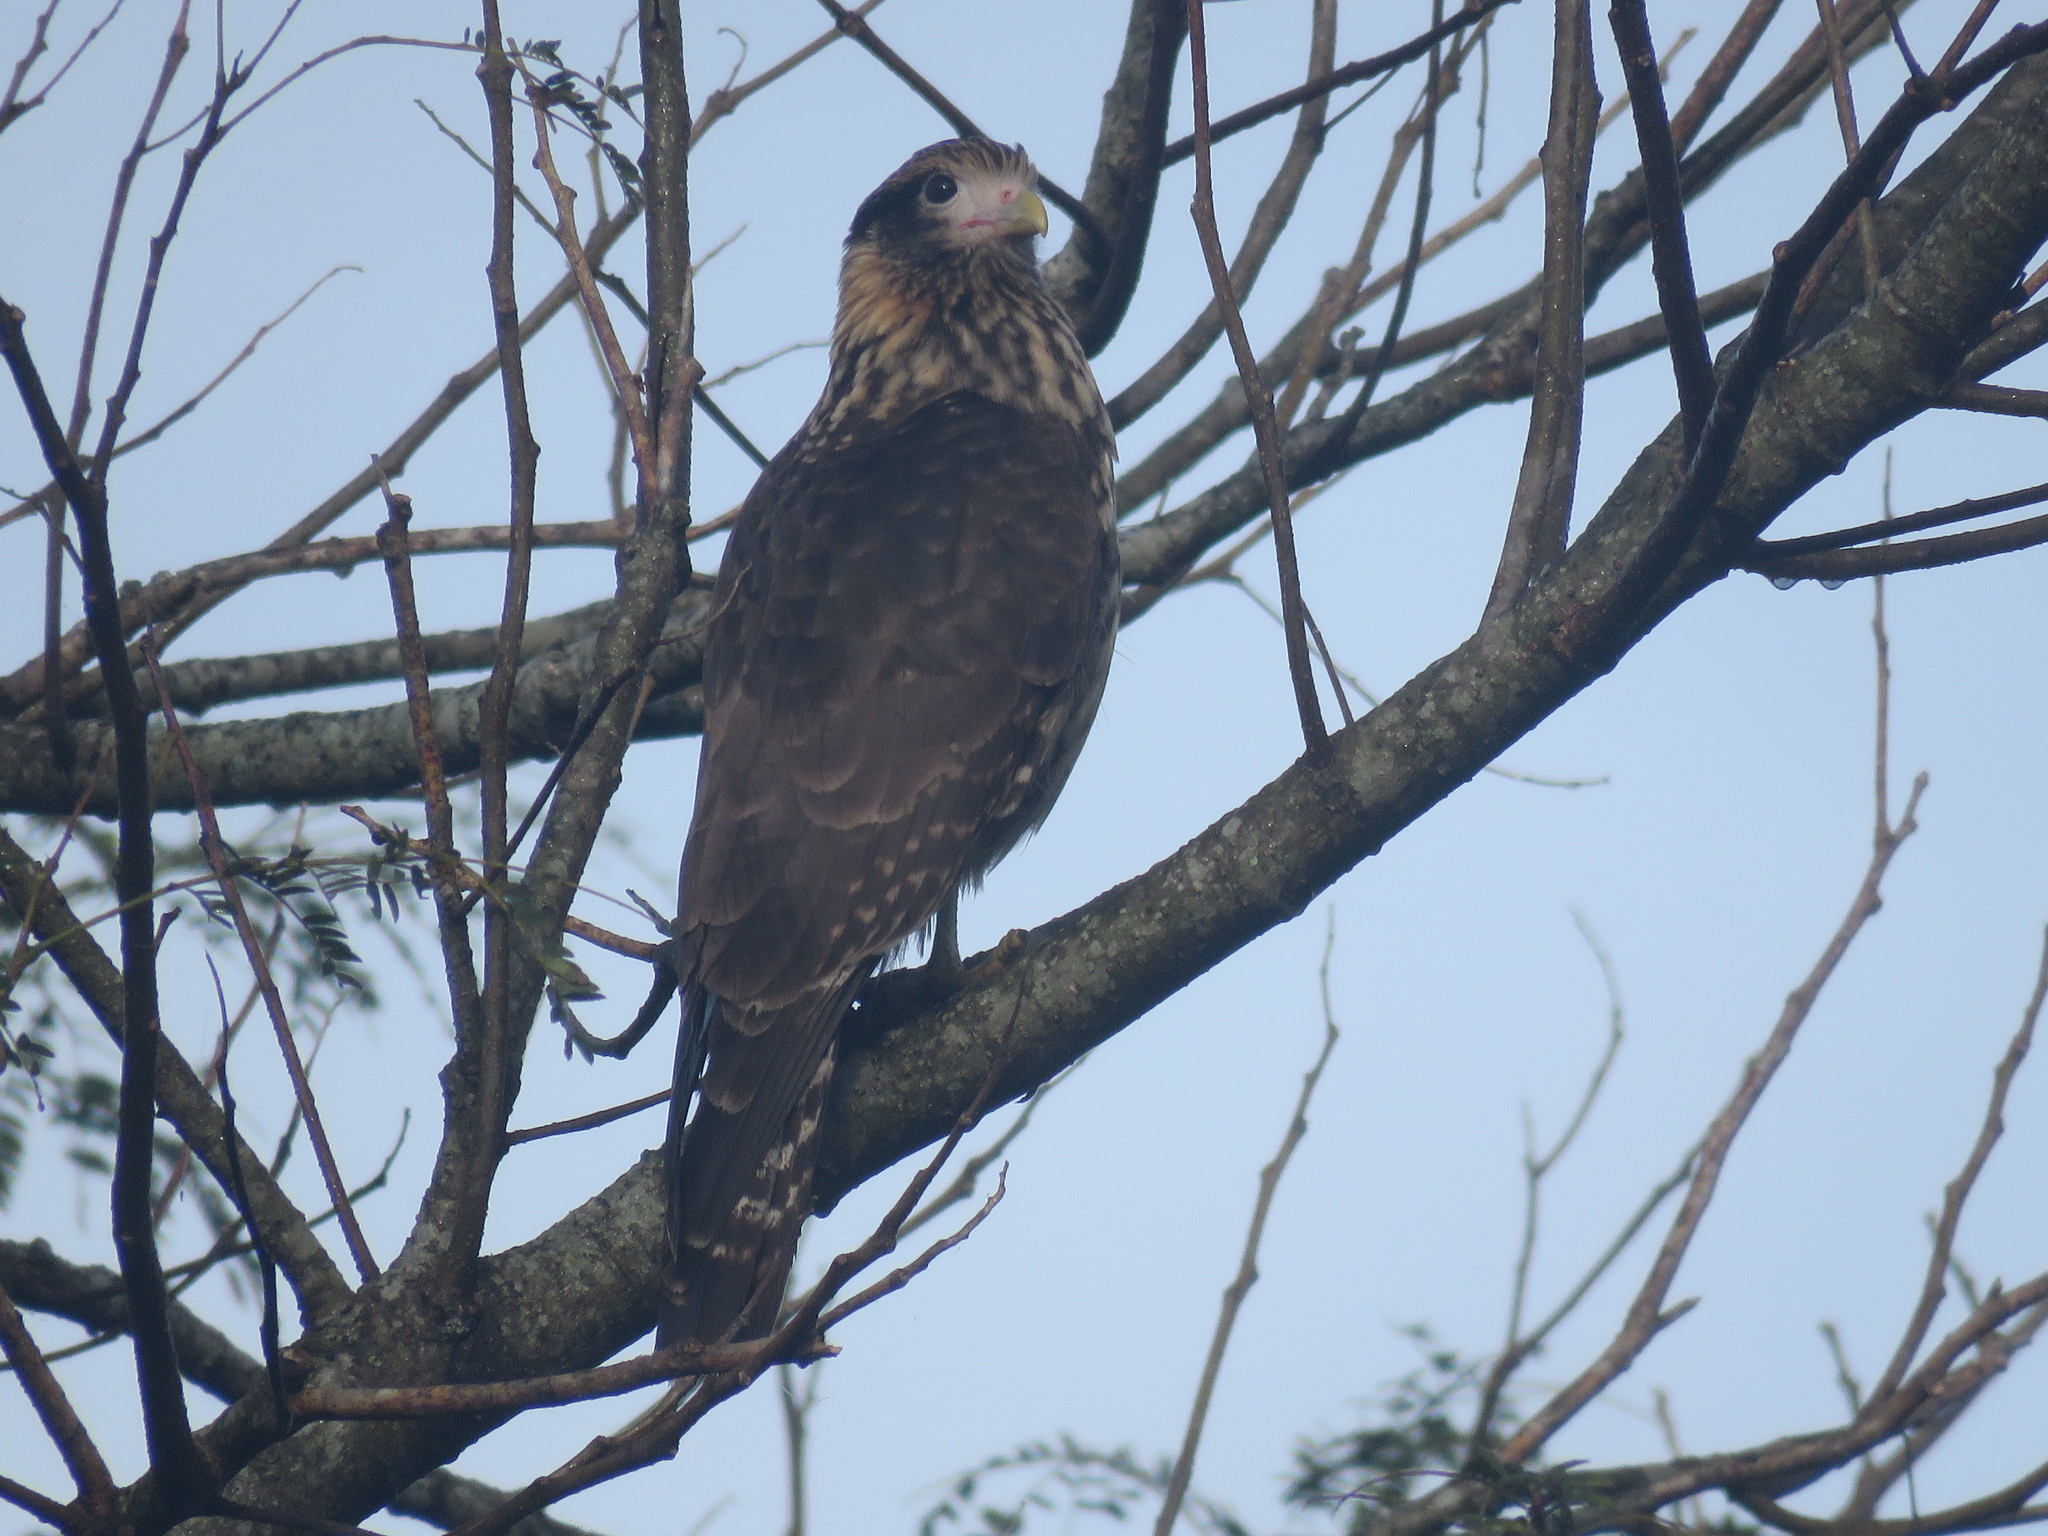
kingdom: Animalia
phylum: Chordata
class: Aves
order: Falconiformes
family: Falconidae
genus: Daptrius
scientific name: Daptrius
